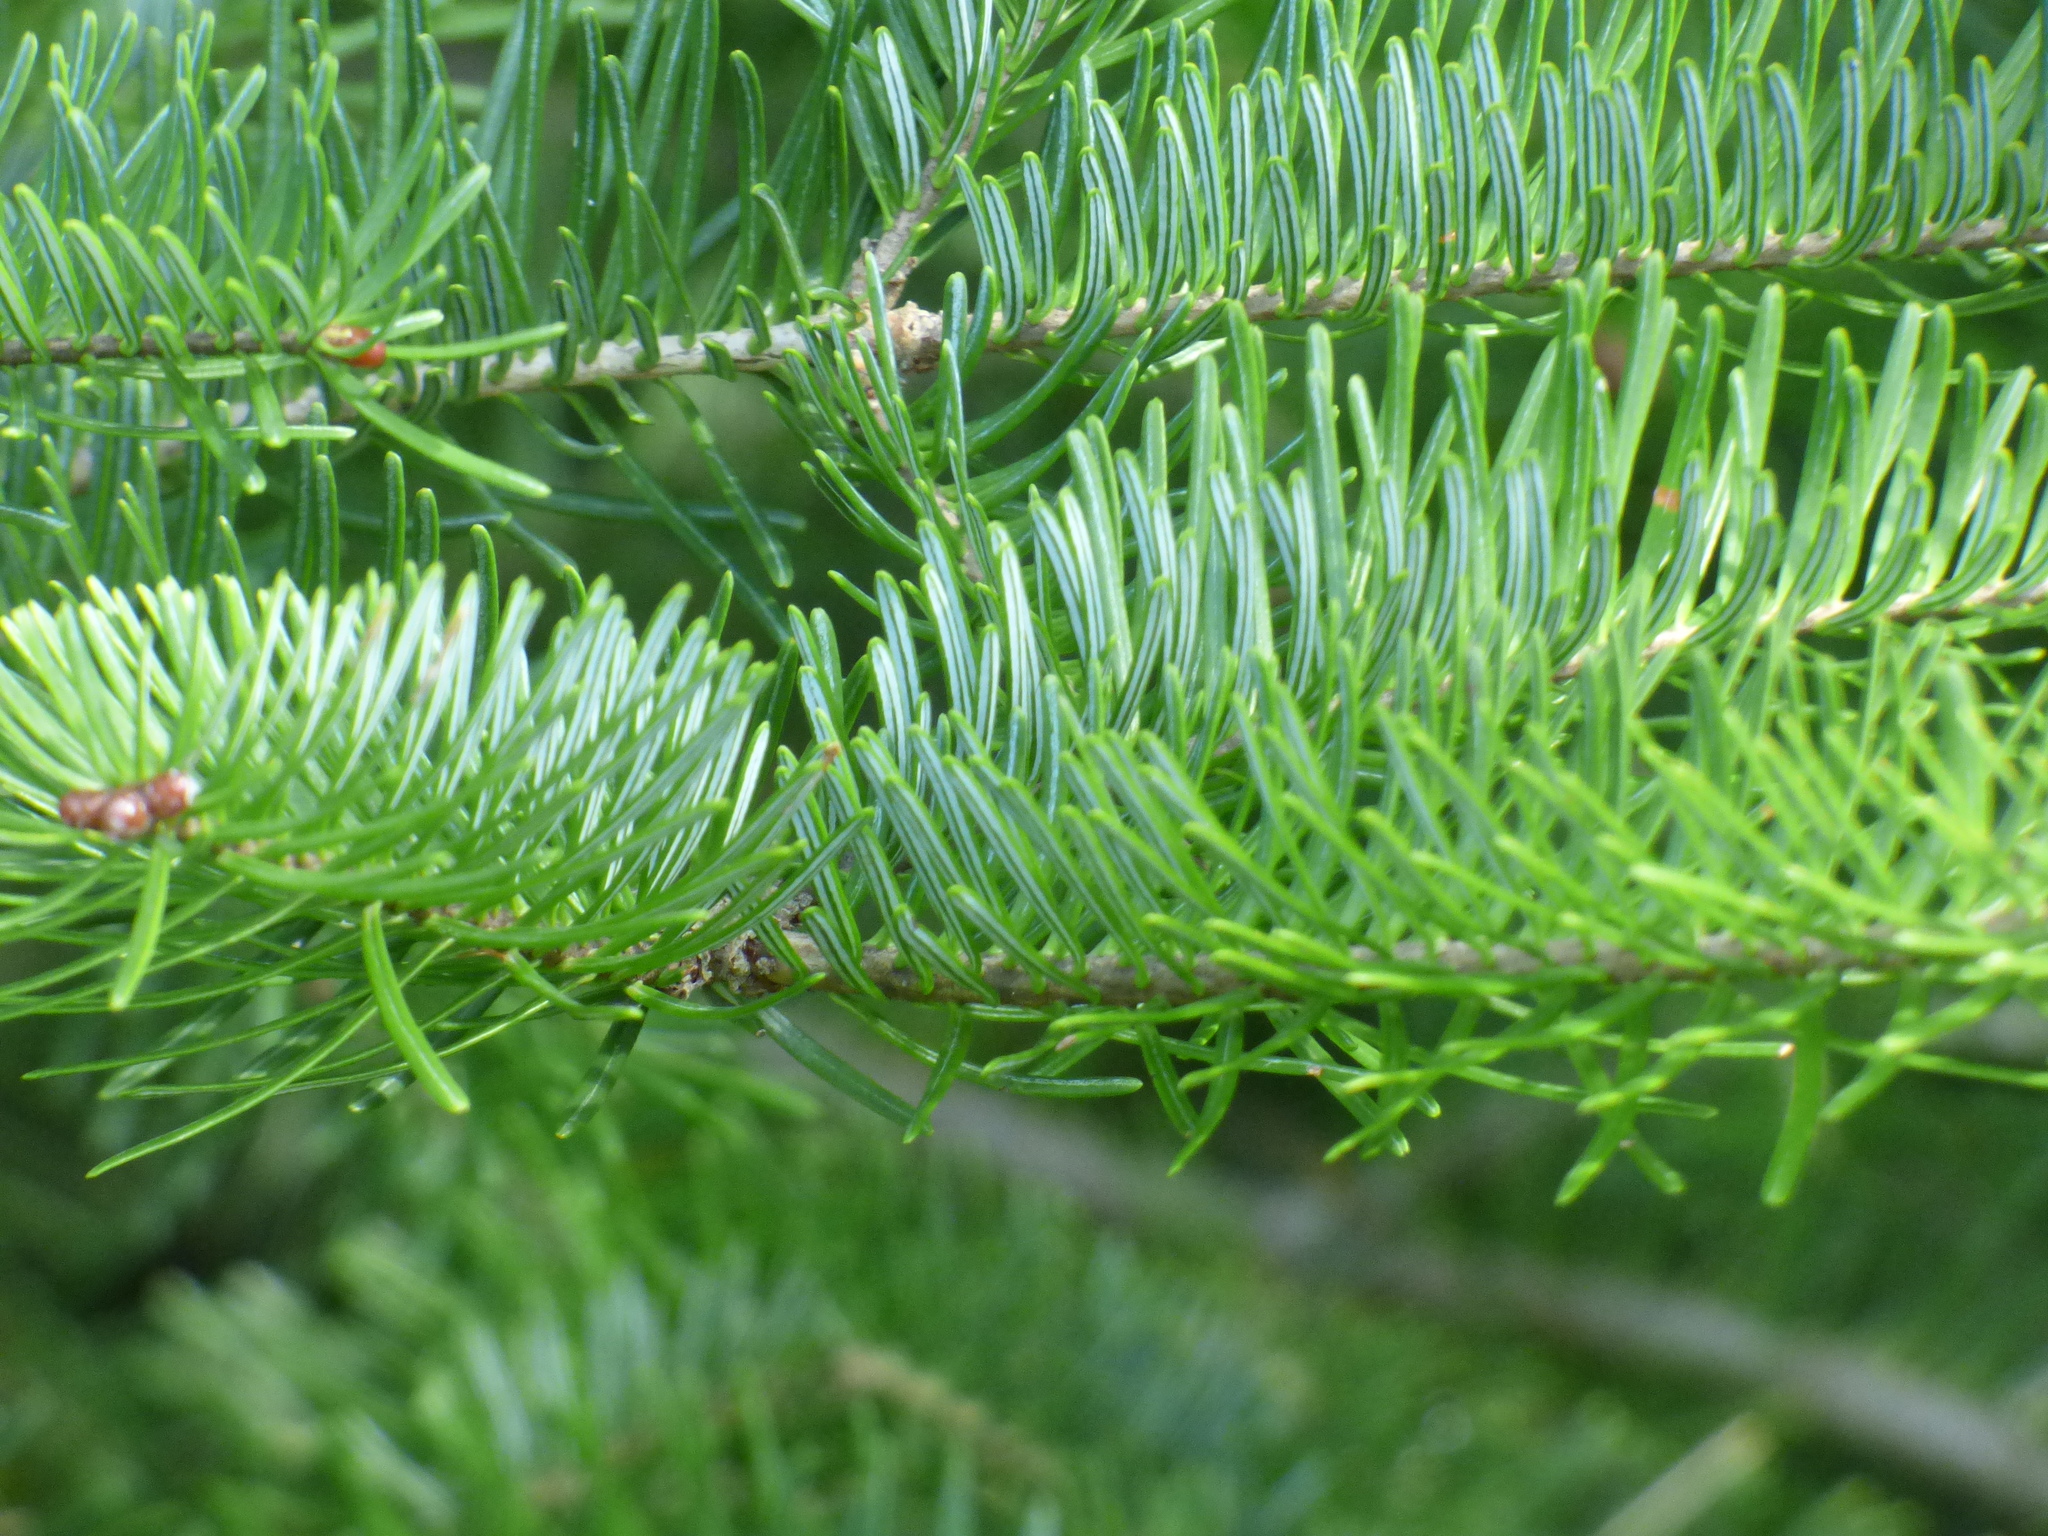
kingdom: Plantae
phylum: Tracheophyta
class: Pinopsida
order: Pinales
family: Pinaceae
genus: Abies
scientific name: Abies balsamea
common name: Balsam fir
